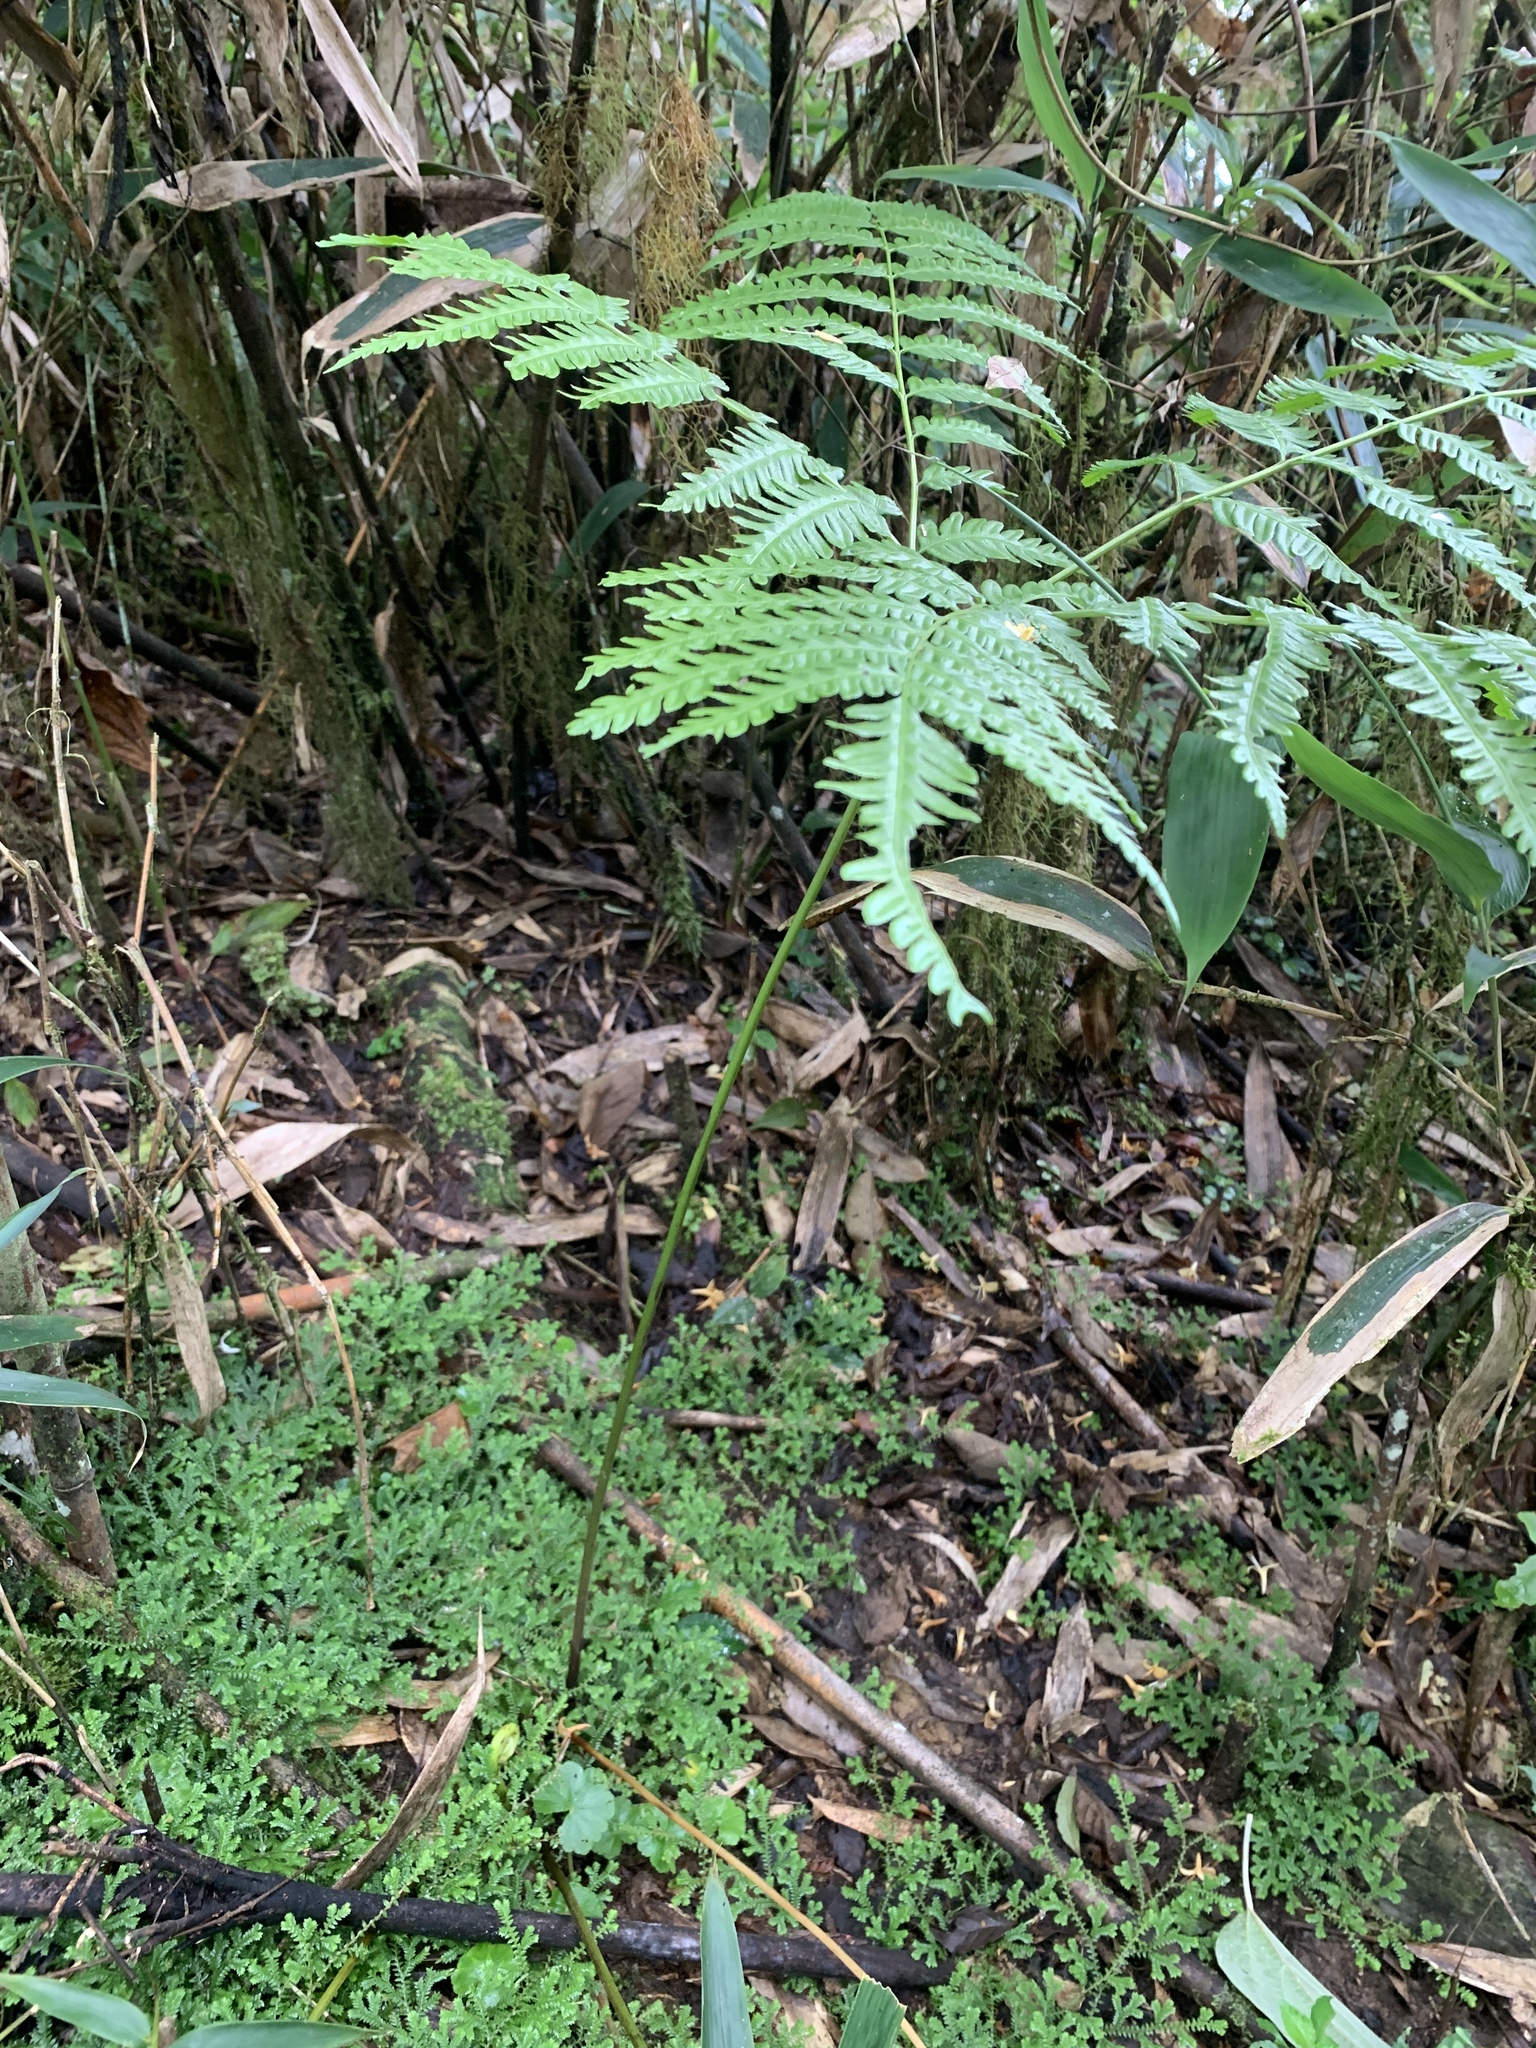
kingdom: Plantae
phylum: Tracheophyta
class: Polypodiopsida
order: Polypodiales
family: Pteridaceae
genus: Pteris
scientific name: Pteris wallichiana
